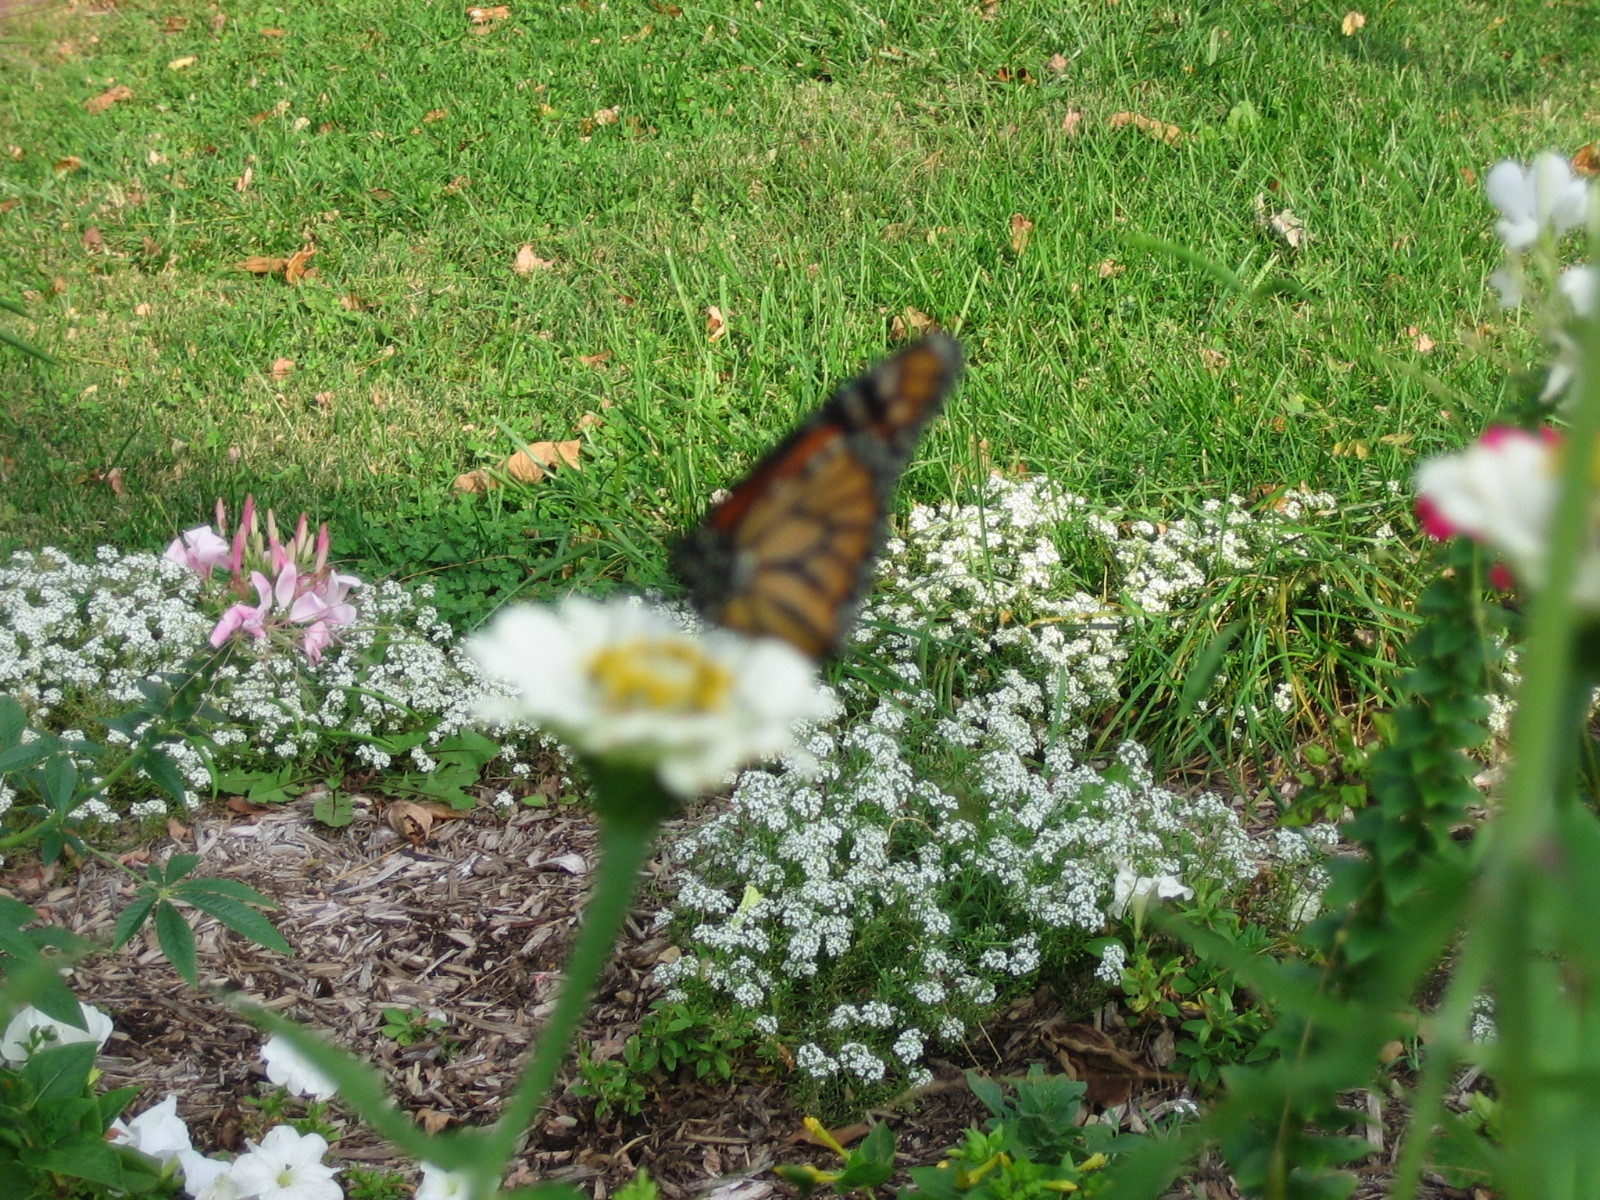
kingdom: Animalia
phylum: Arthropoda
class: Insecta
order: Lepidoptera
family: Nymphalidae
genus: Danaus
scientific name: Danaus plexippus
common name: Monarch
